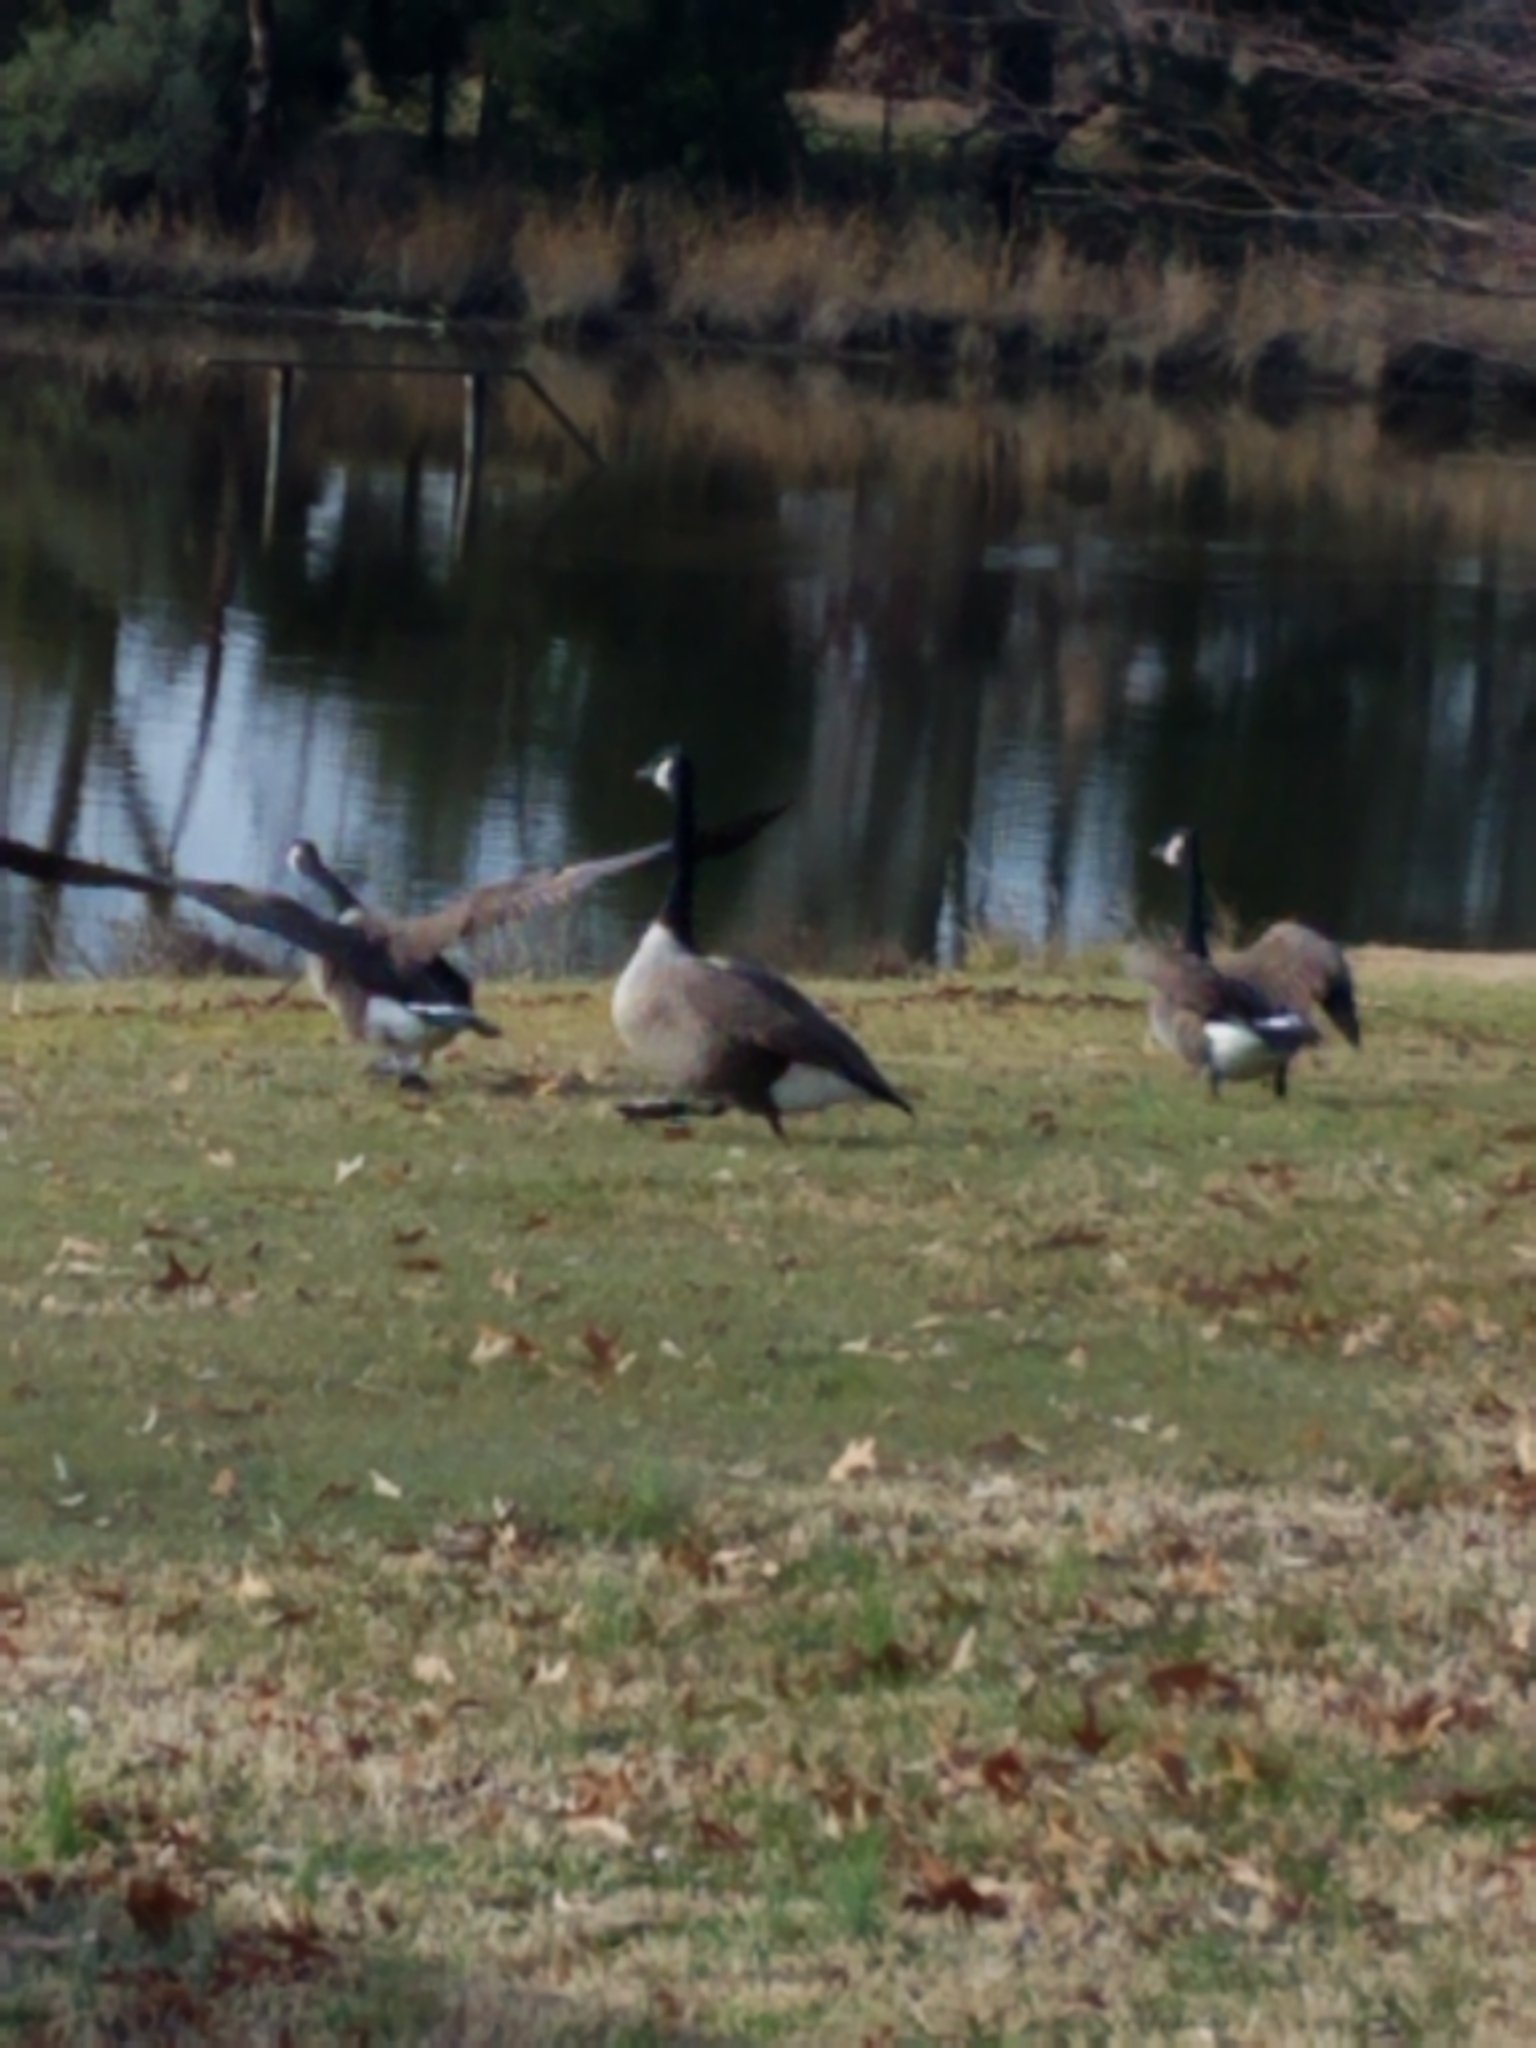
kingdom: Animalia
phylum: Chordata
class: Aves
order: Anseriformes
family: Anatidae
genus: Branta
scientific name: Branta canadensis
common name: Canada goose
